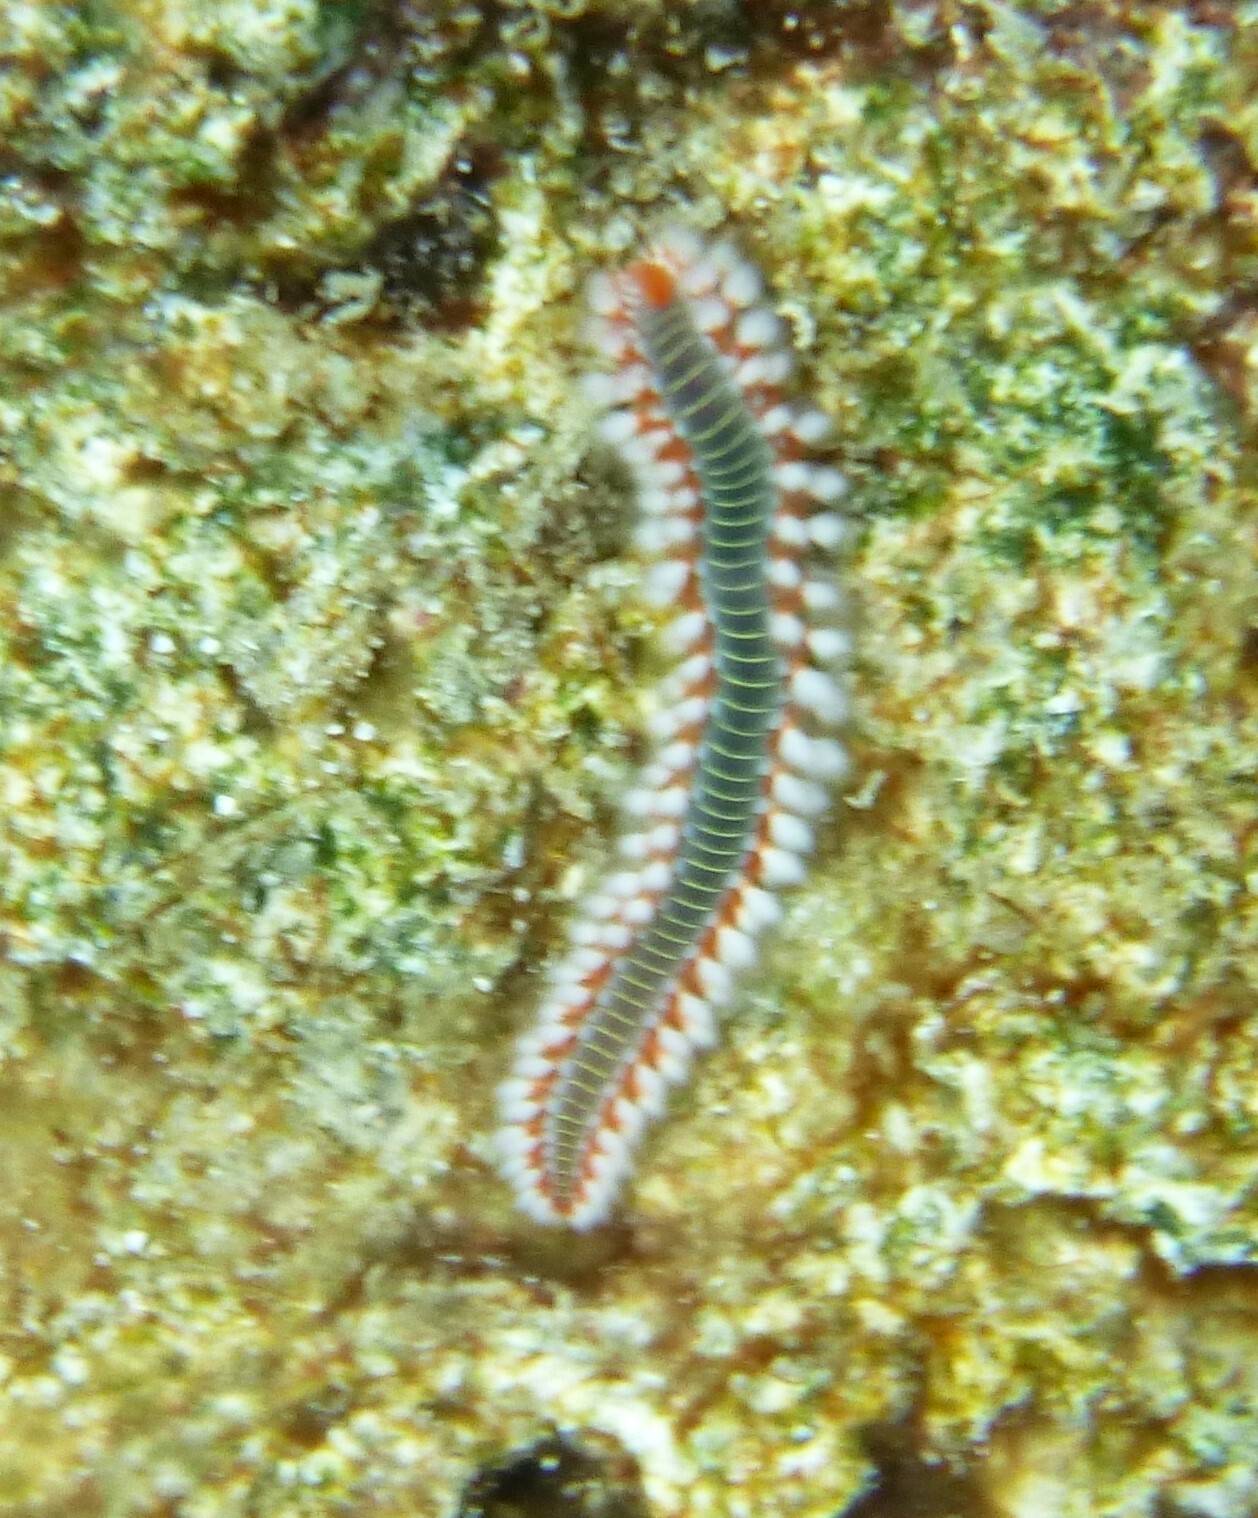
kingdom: Animalia
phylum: Annelida
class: Polychaeta
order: Amphinomida
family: Amphinomidae
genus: Hermodice
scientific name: Hermodice carunculata
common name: Bearded fireworm
